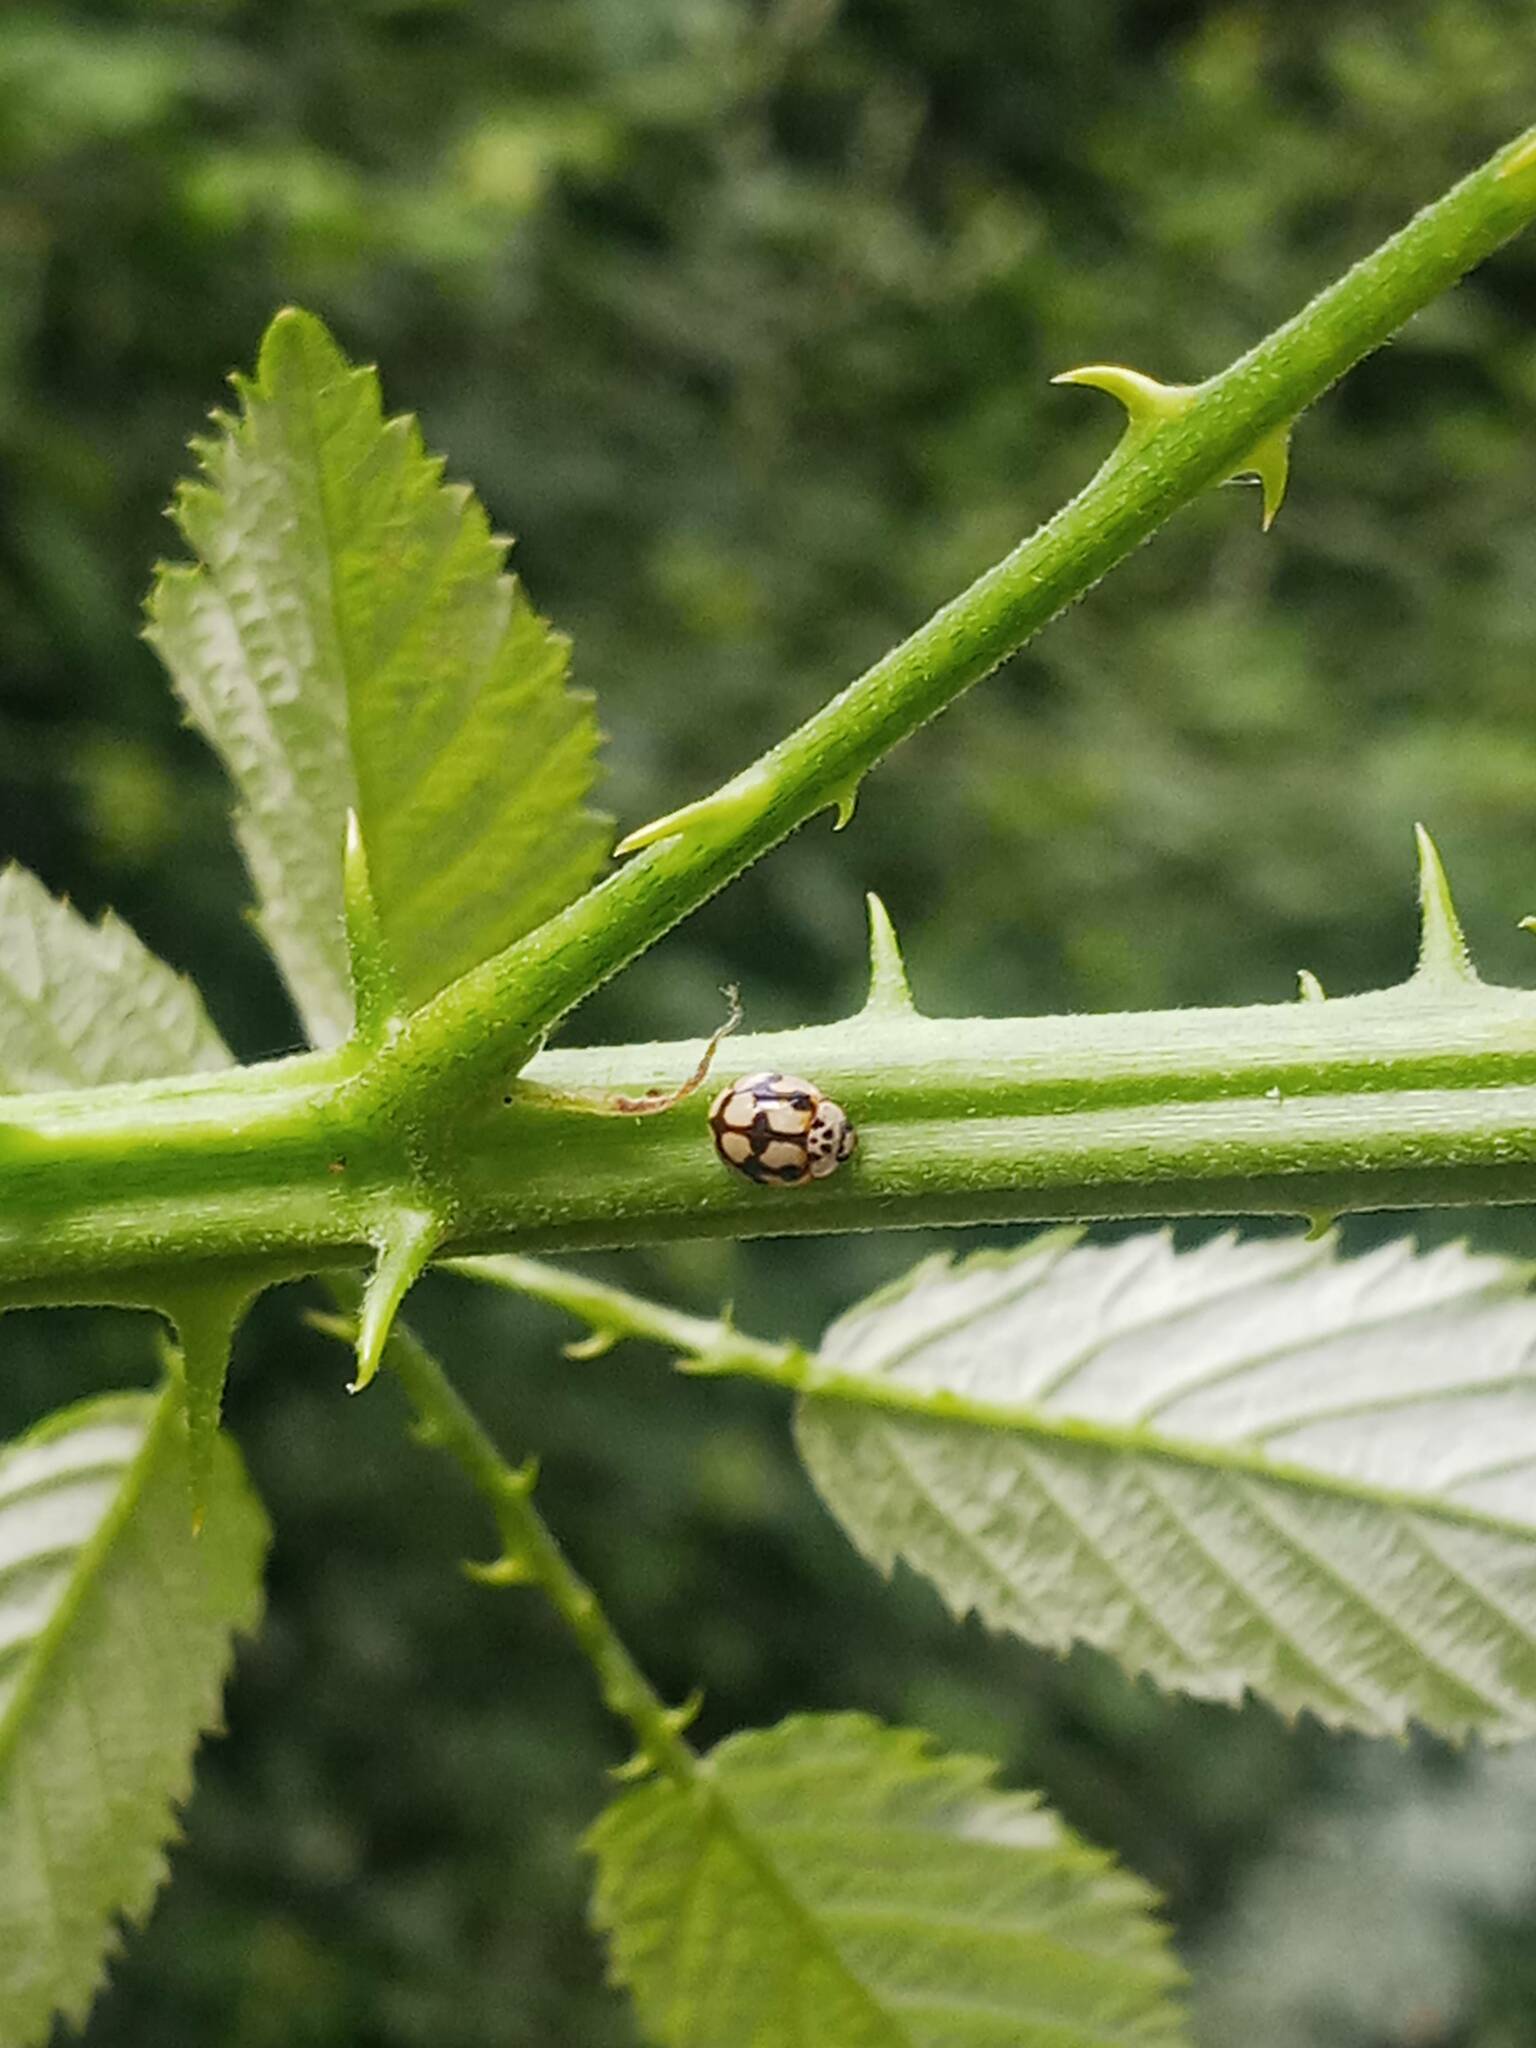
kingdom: Animalia
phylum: Arthropoda
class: Insecta
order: Coleoptera
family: Coccinellidae
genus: Adalia
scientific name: Adalia decempunctata
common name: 10-spot ladybird
